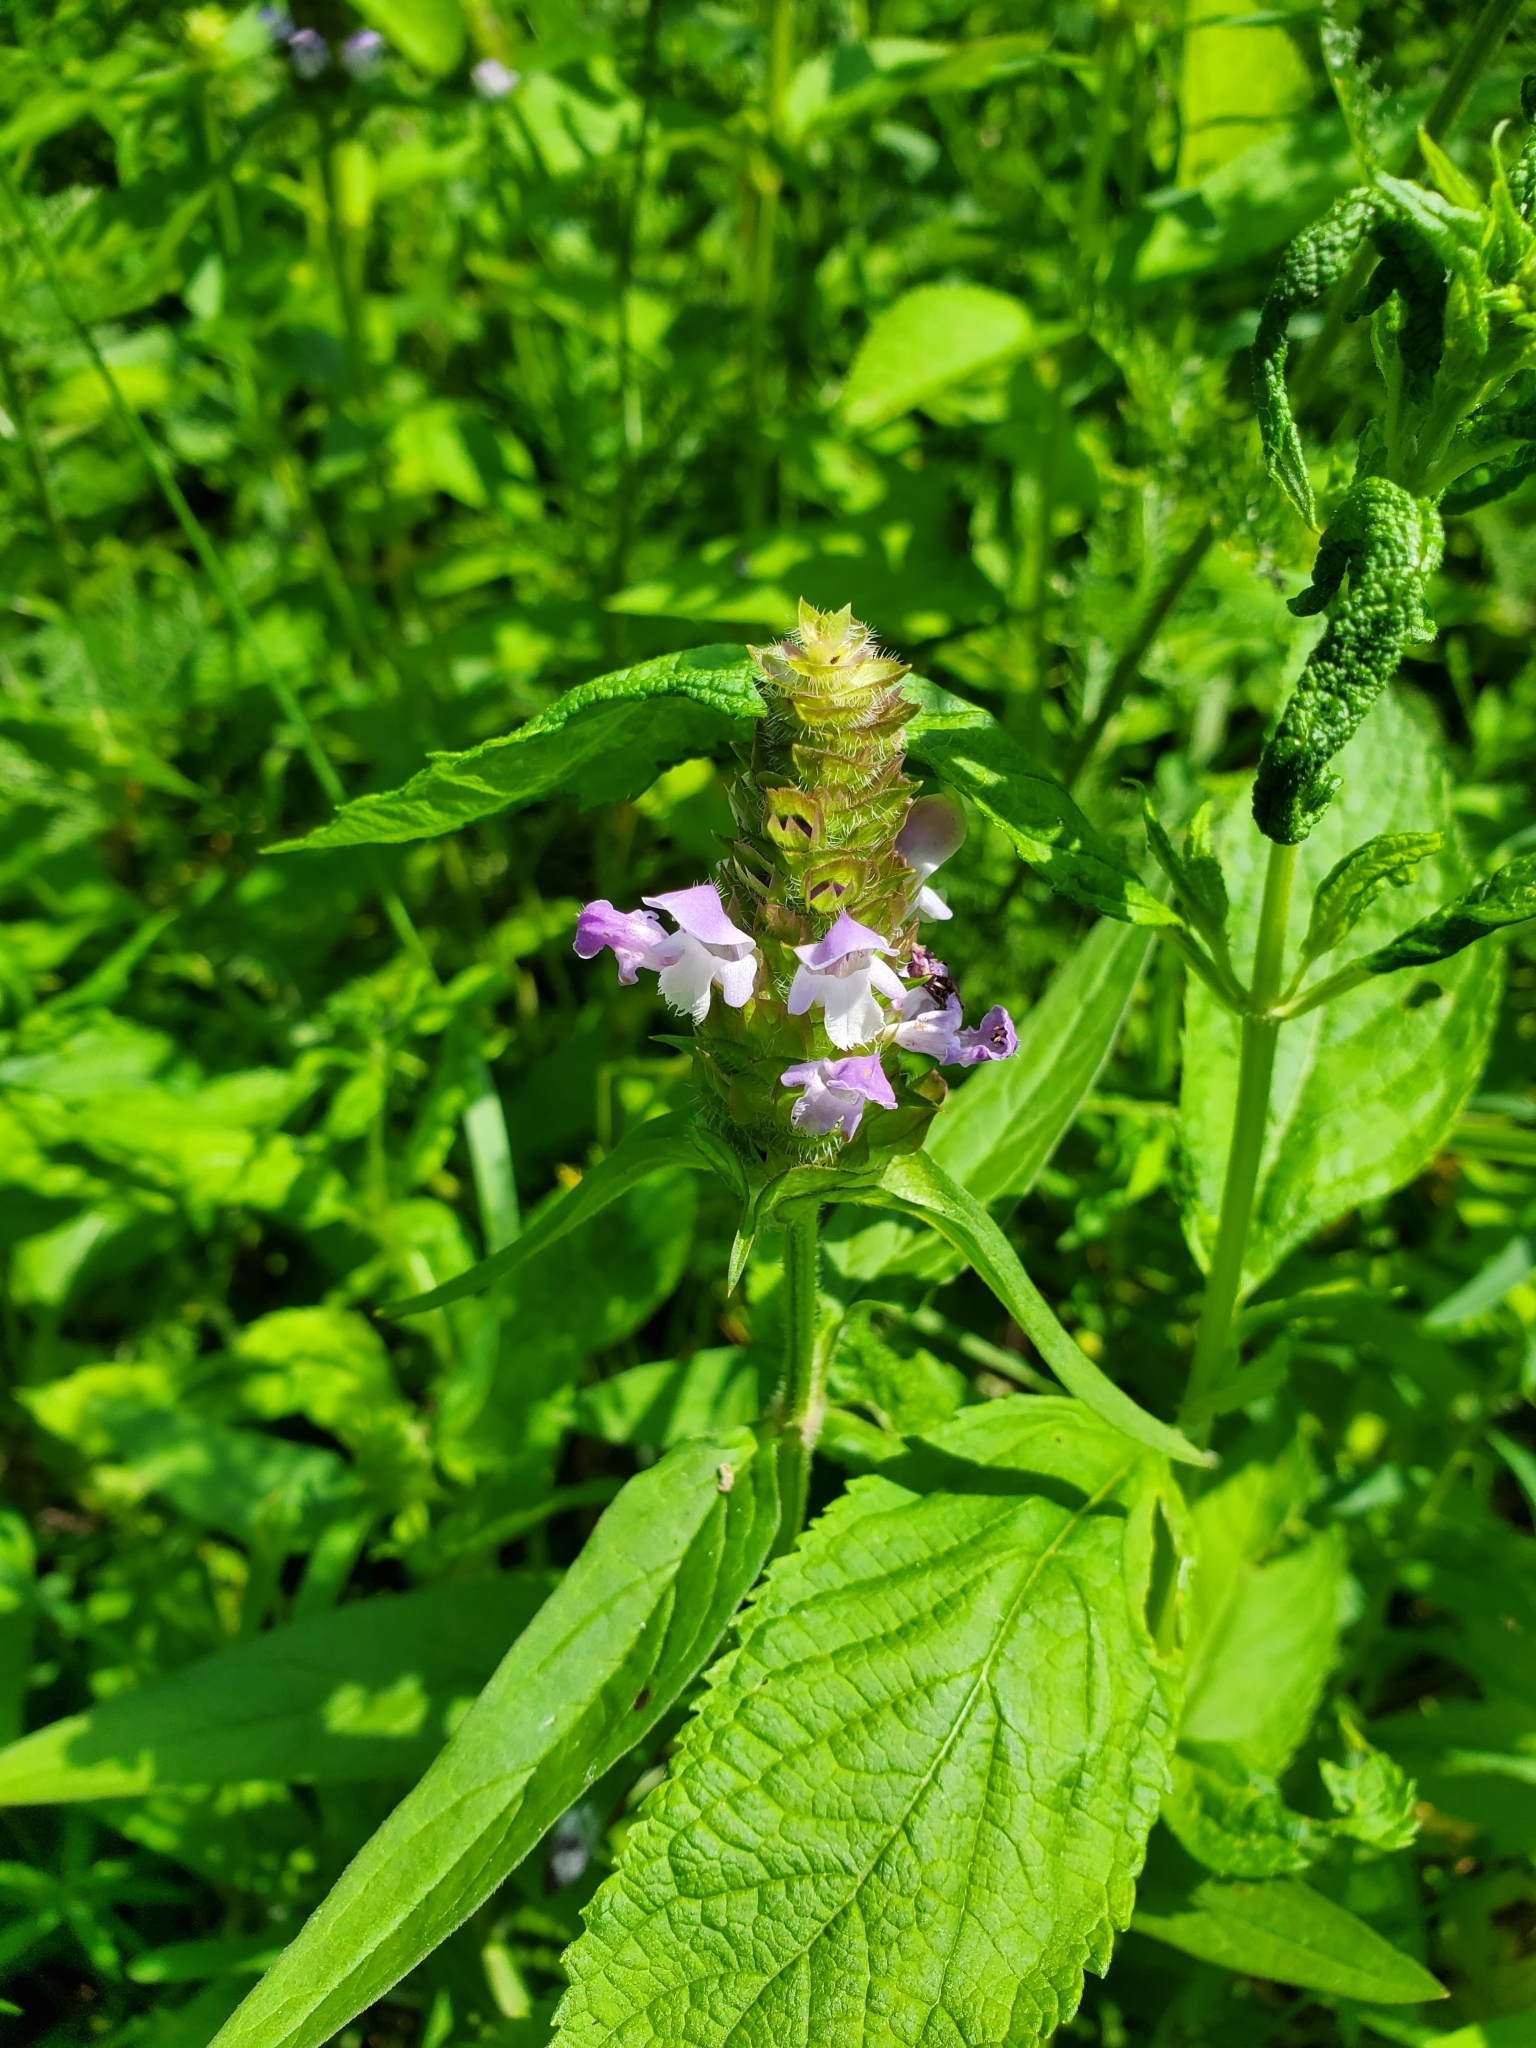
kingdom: Plantae
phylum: Tracheophyta
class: Magnoliopsida
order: Lamiales
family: Lamiaceae
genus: Prunella
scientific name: Prunella vulgaris
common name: Heal-all
